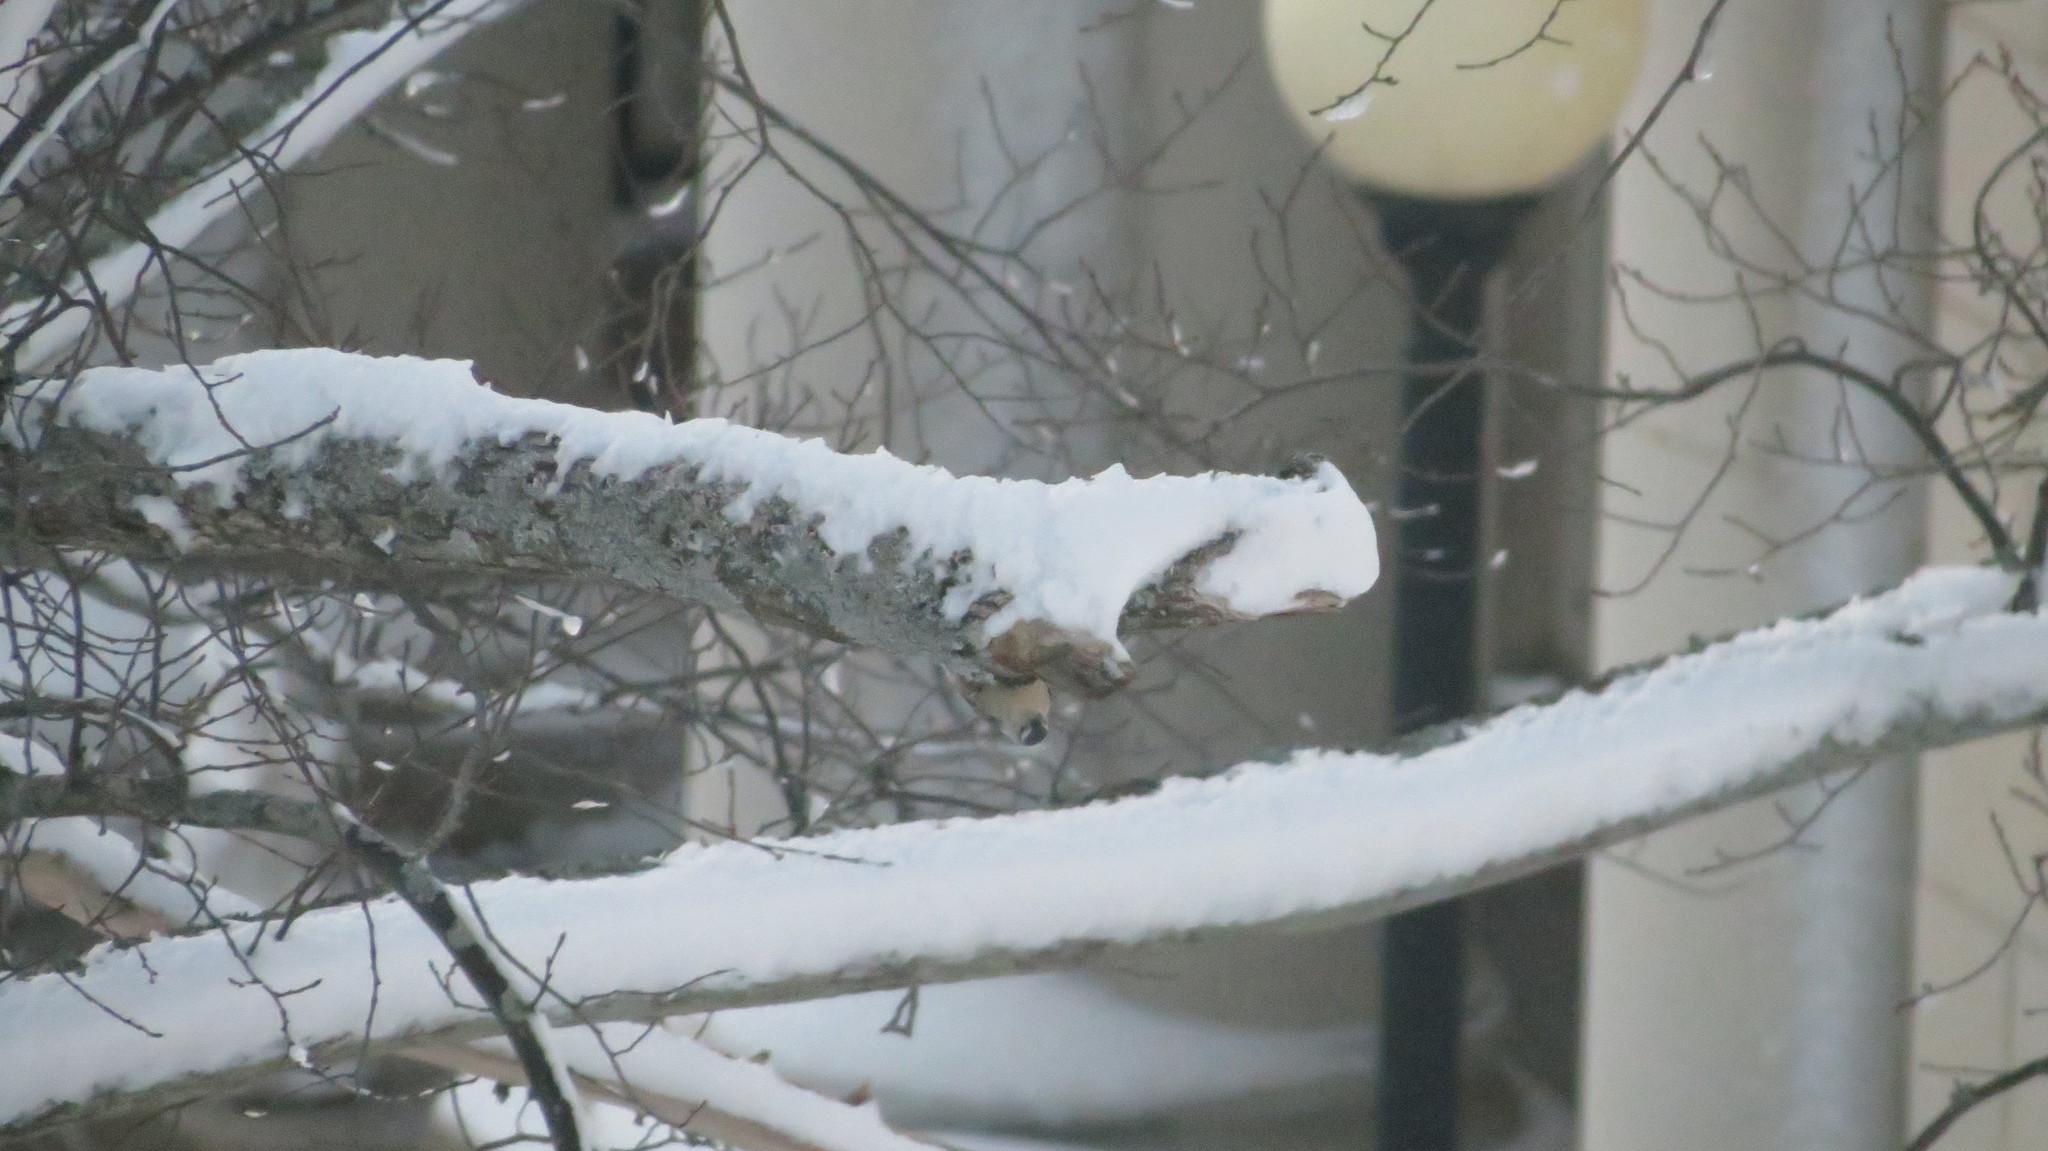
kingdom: Animalia
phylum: Chordata
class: Aves
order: Passeriformes
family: Sittidae
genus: Sitta
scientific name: Sitta carolinensis
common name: White-breasted nuthatch
